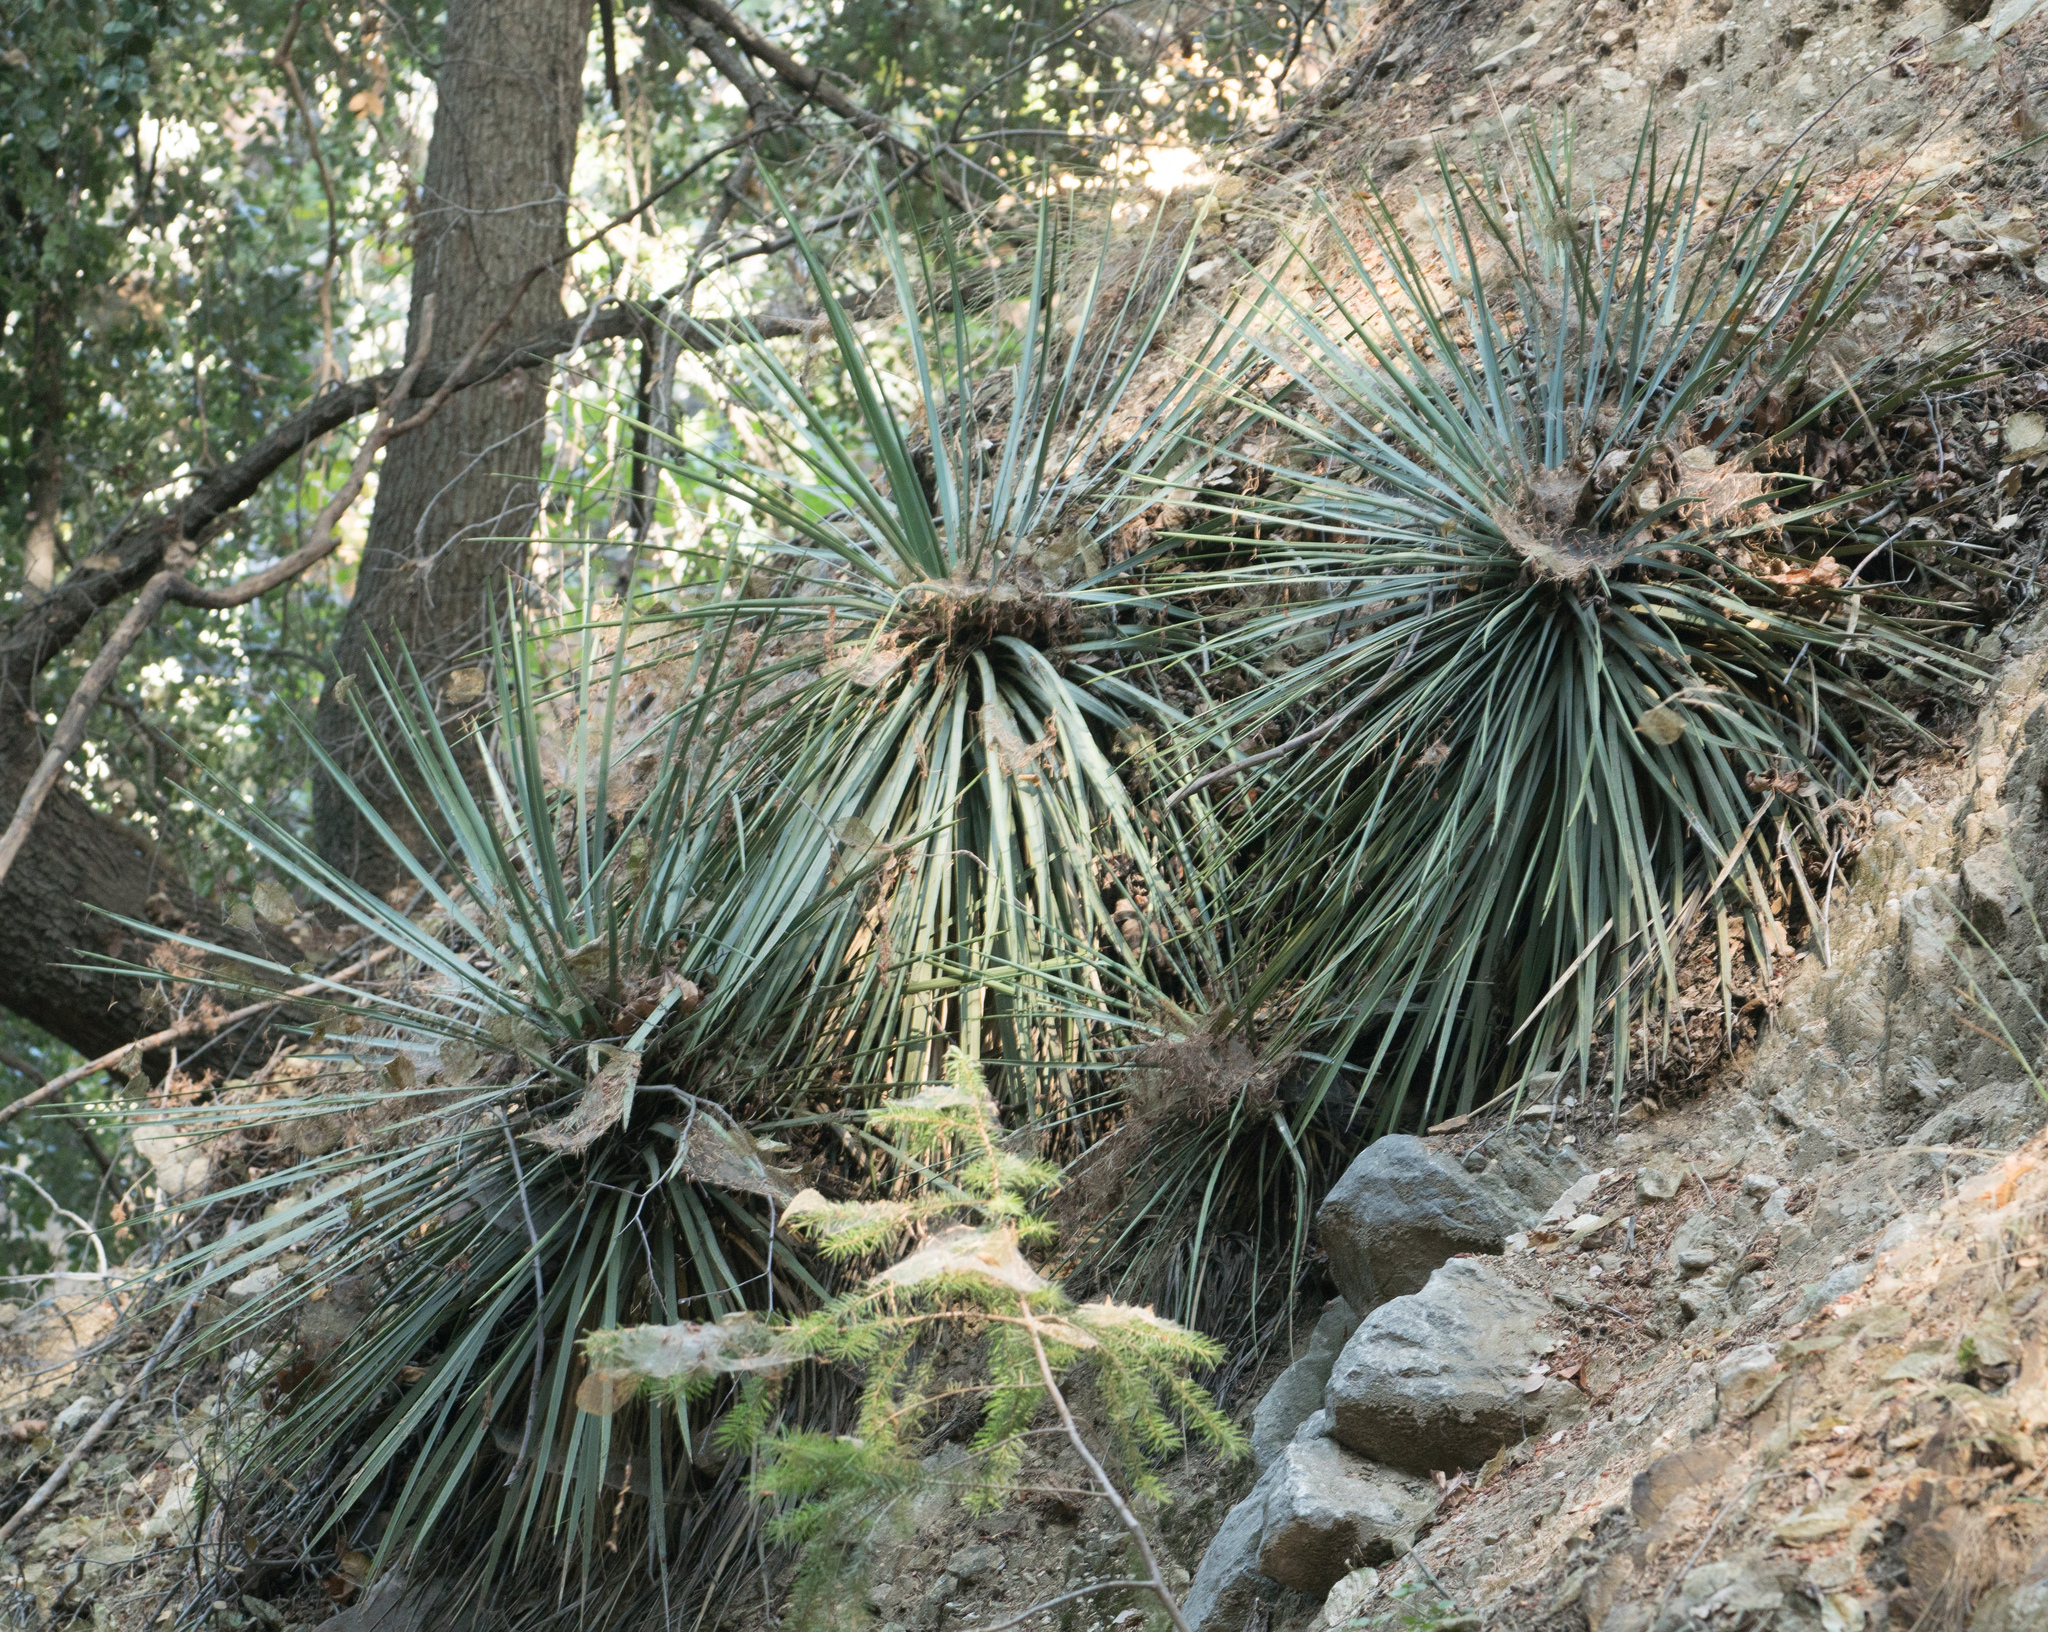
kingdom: Plantae
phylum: Tracheophyta
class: Liliopsida
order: Asparagales
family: Asparagaceae
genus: Hesperoyucca
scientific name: Hesperoyucca whipplei
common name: Our lord's-candle
